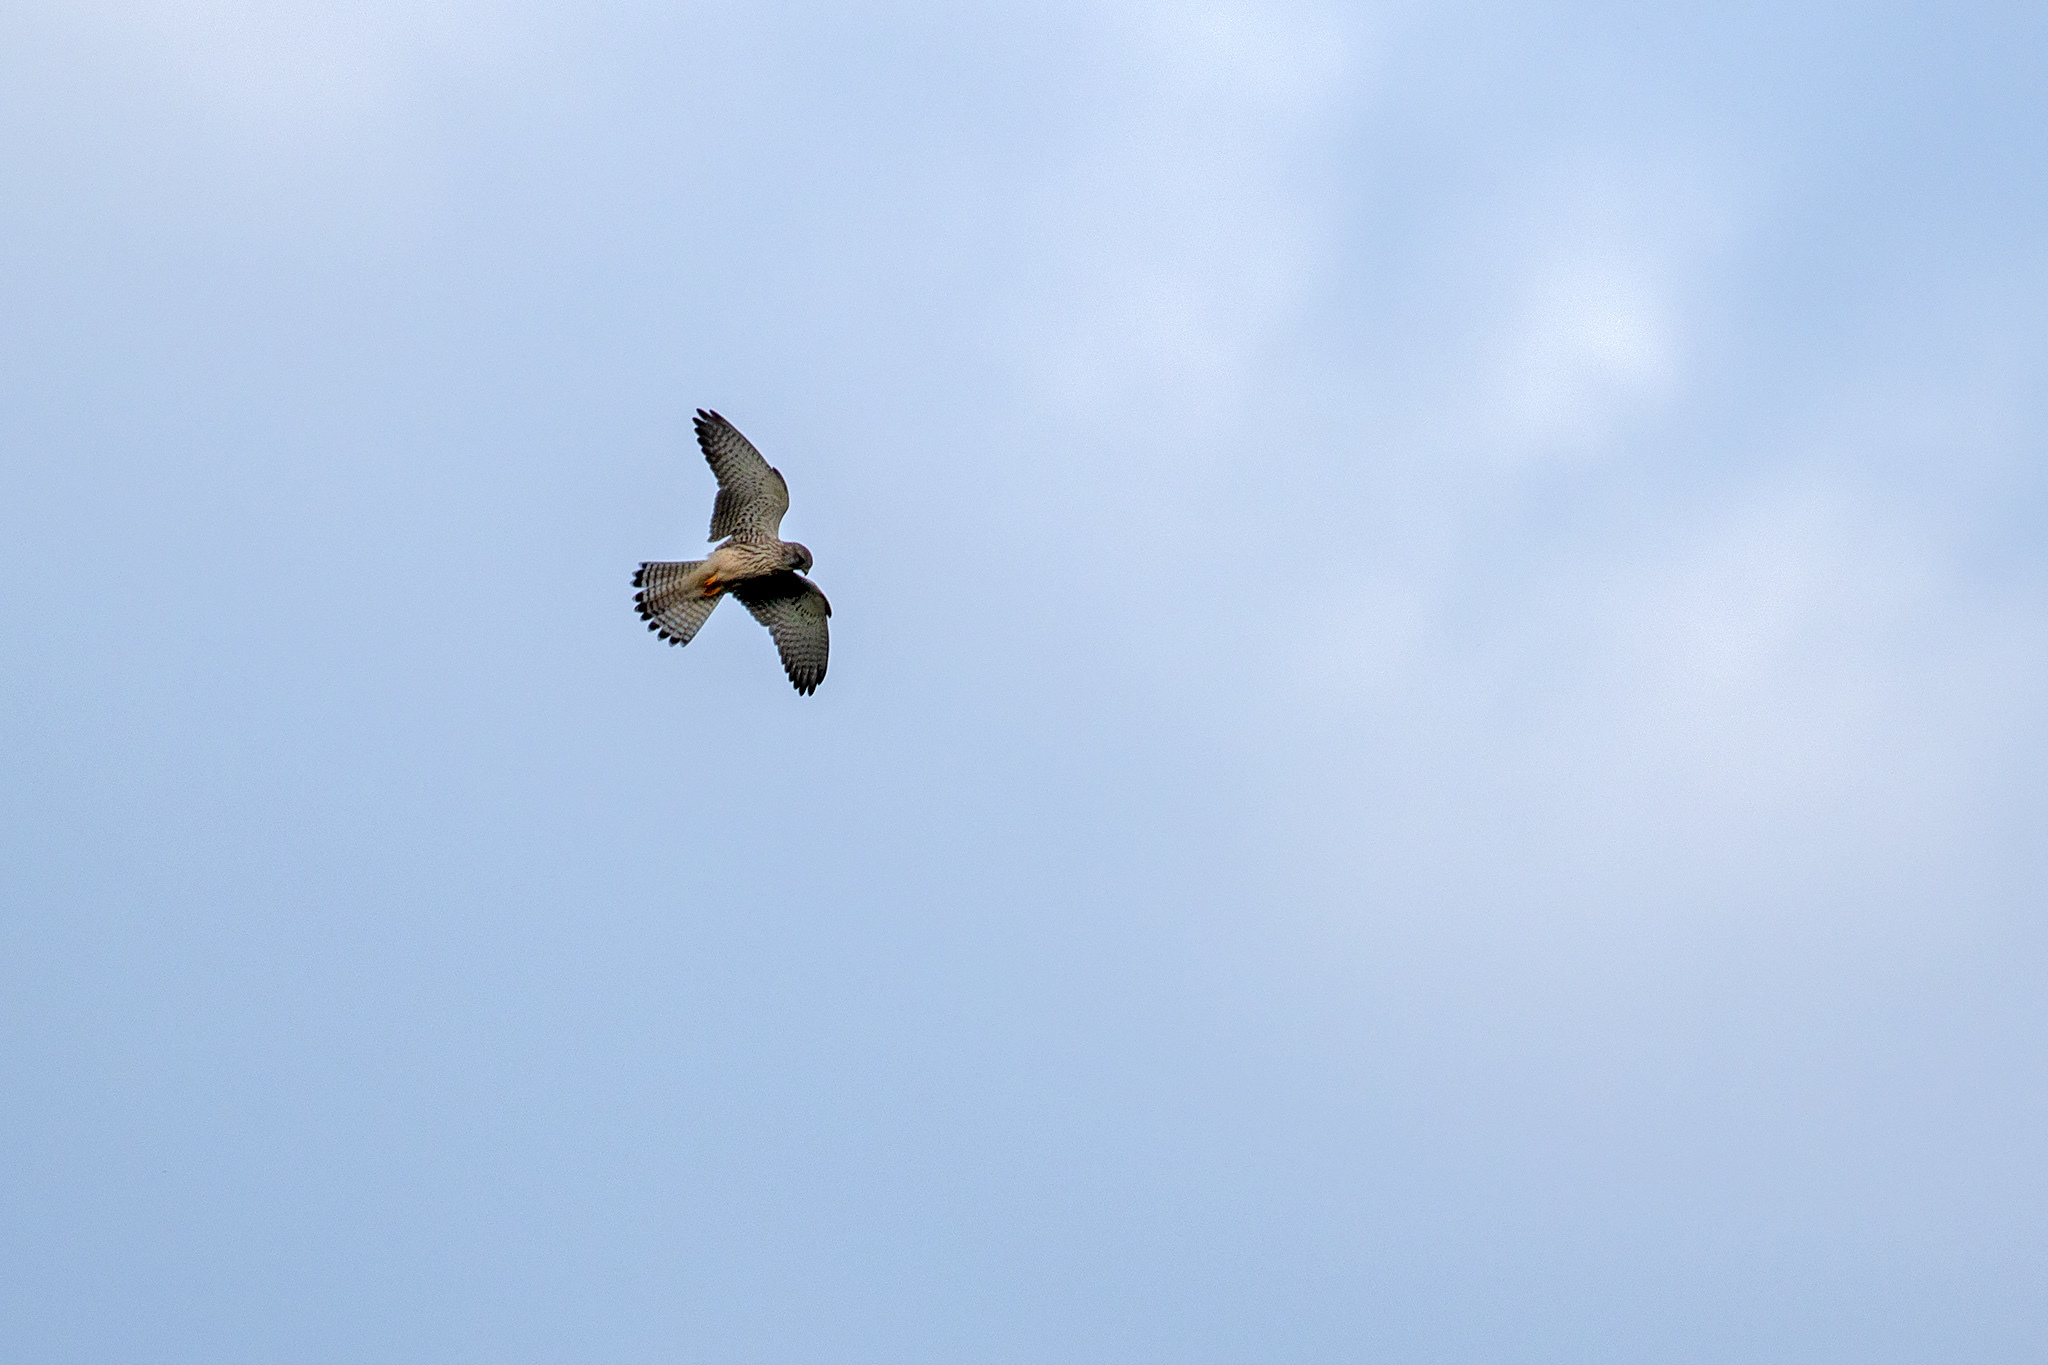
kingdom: Animalia
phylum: Chordata
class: Aves
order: Falconiformes
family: Falconidae
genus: Falco
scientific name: Falco tinnunculus
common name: Common kestrel
